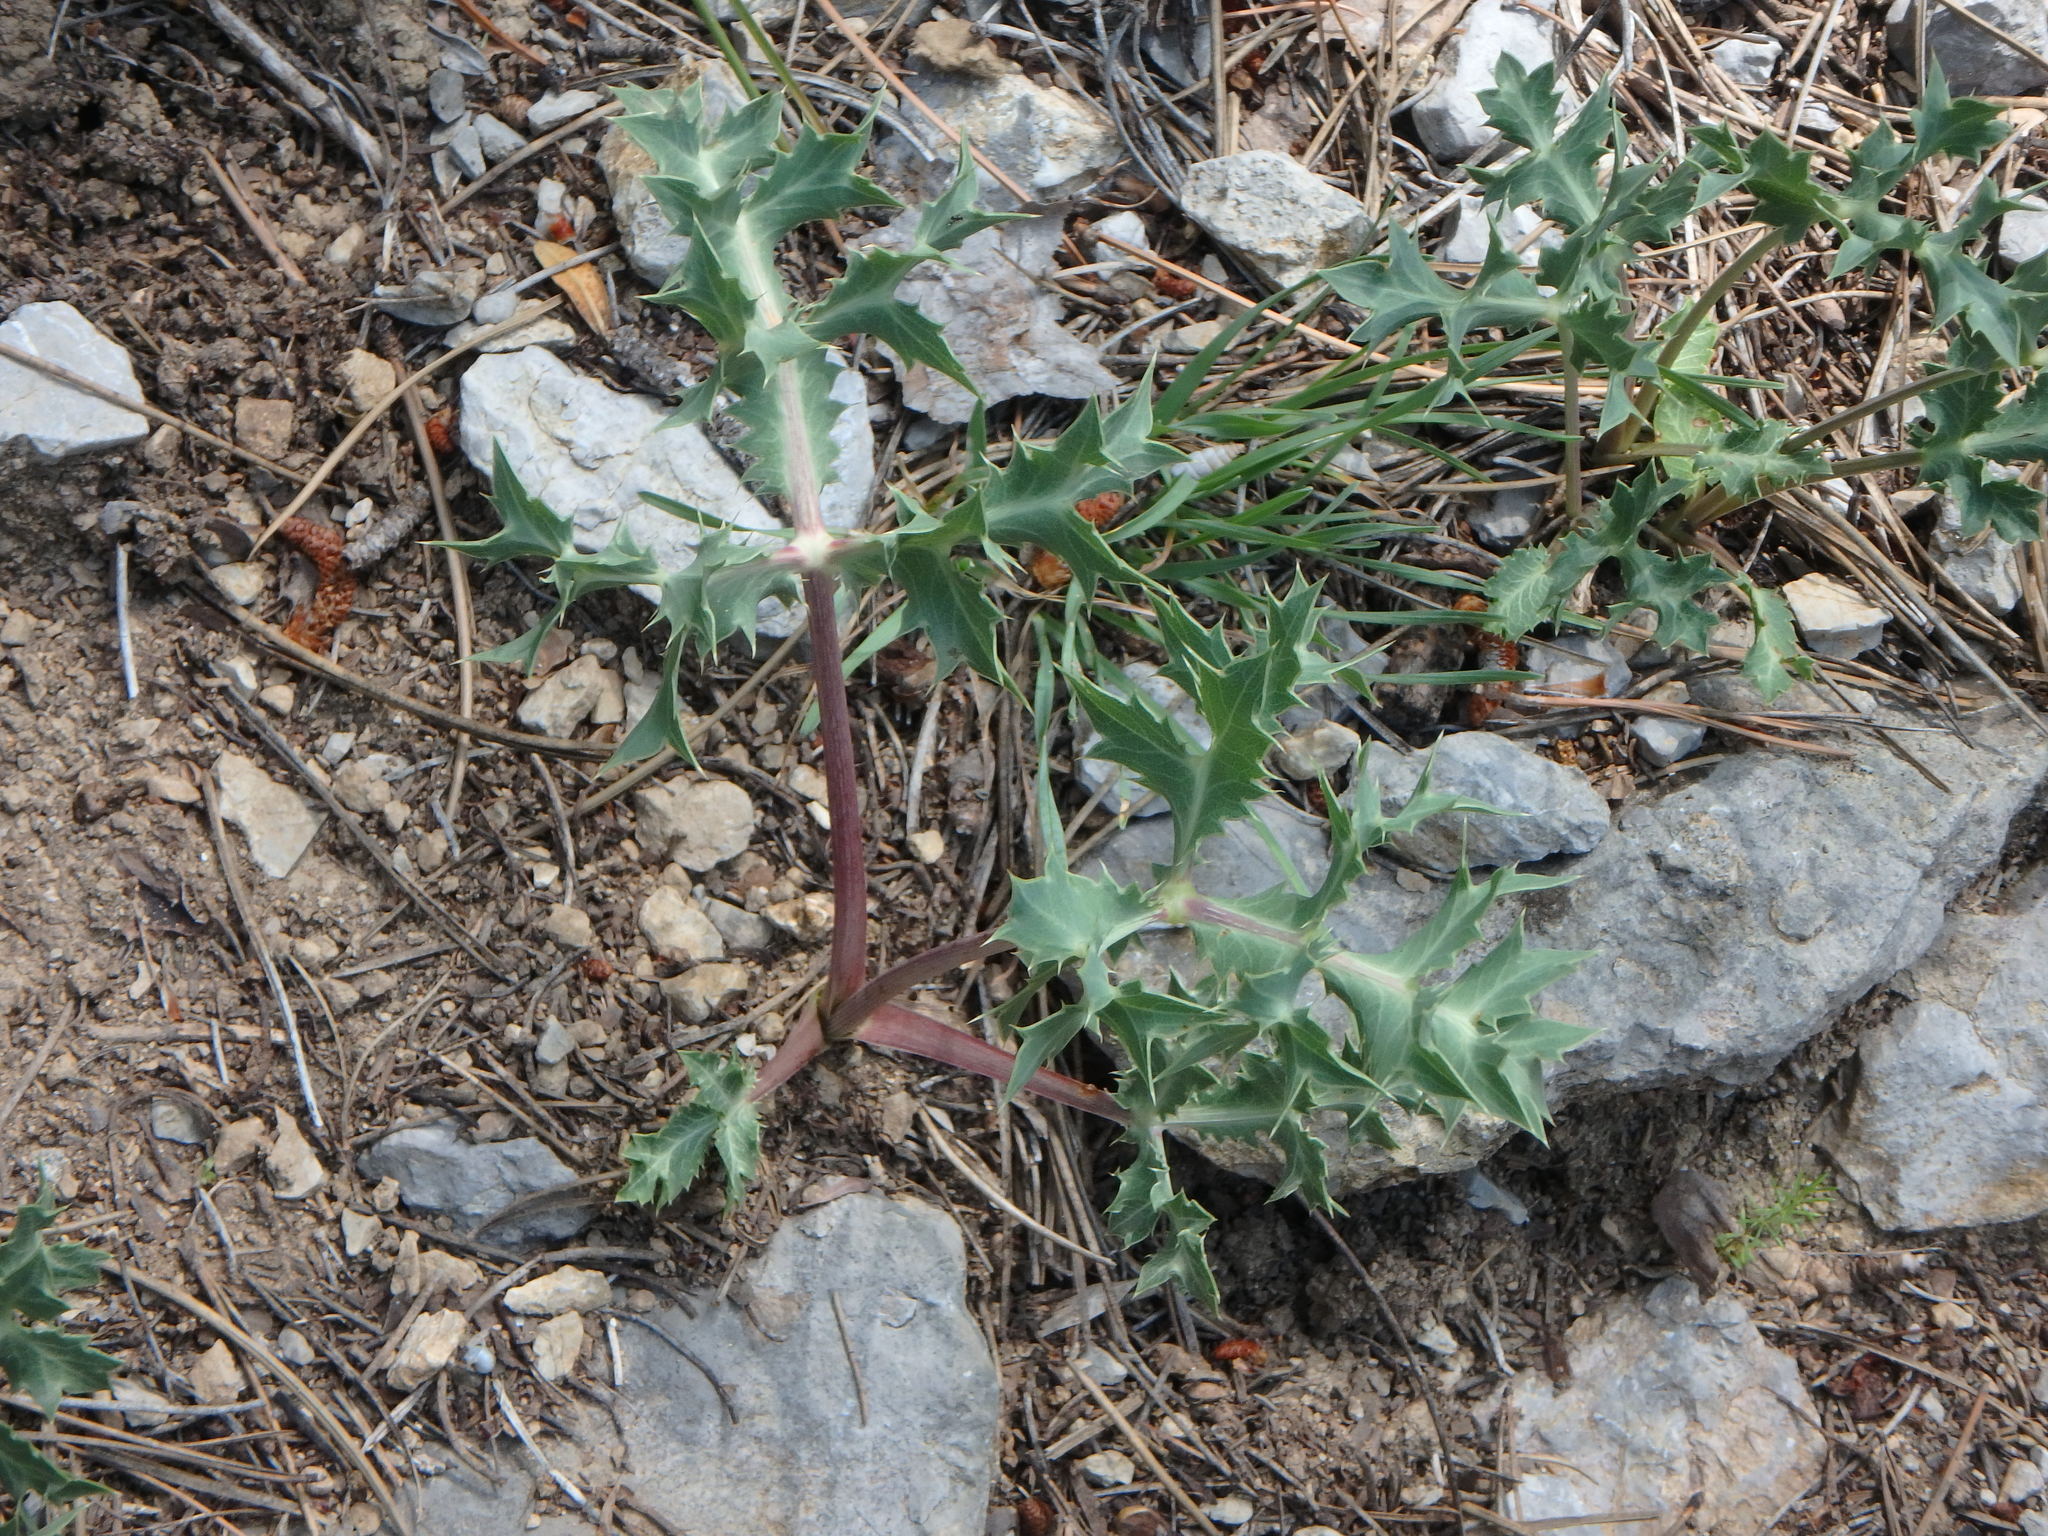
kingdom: Plantae
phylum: Tracheophyta
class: Magnoliopsida
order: Apiales
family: Apiaceae
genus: Eryngium
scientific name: Eryngium campestre
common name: Field eryngo
